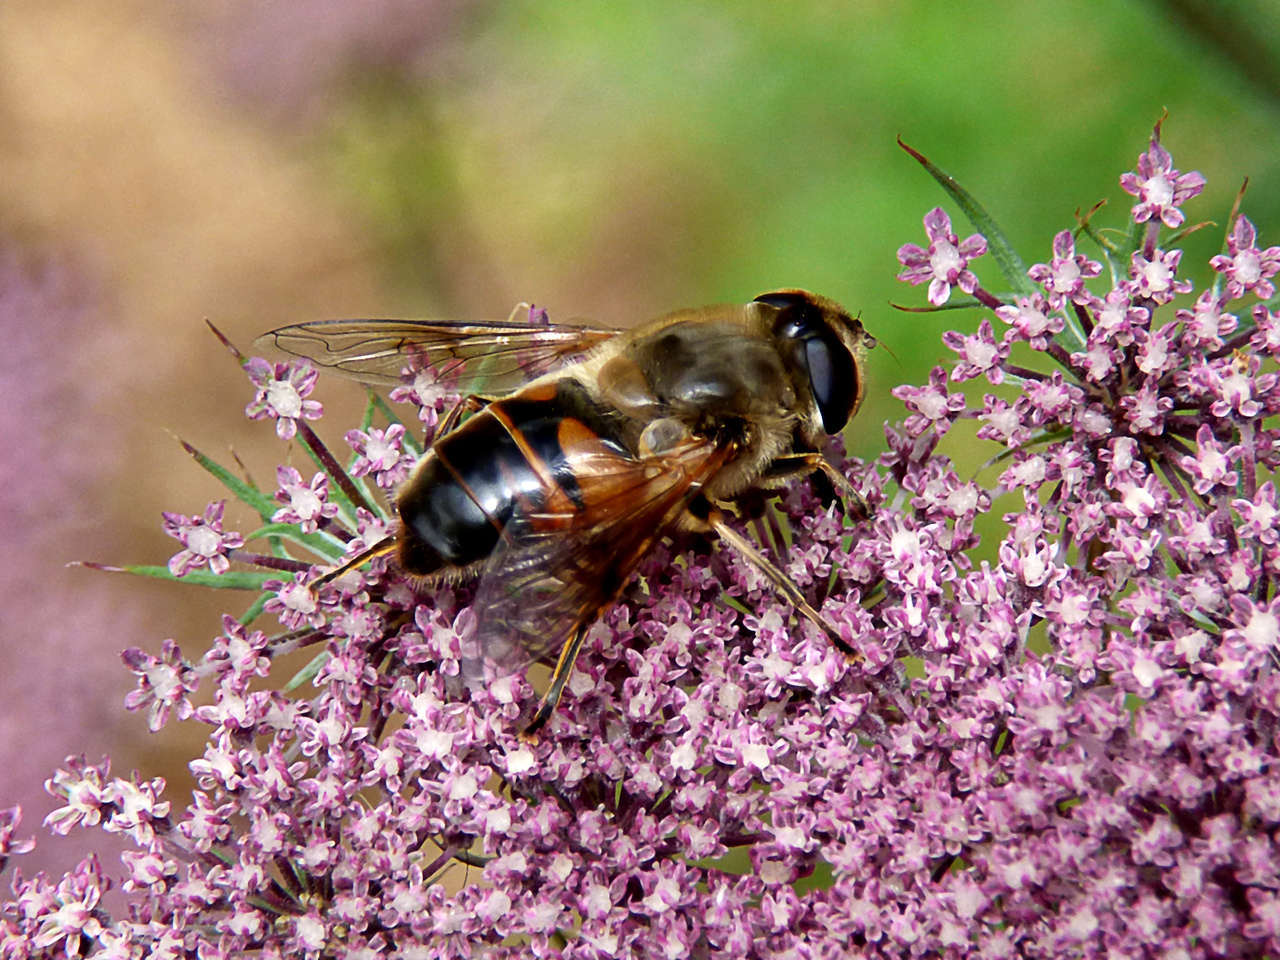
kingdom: Animalia
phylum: Arthropoda
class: Insecta
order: Diptera
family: Syrphidae
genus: Eristalis
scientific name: Eristalis tenax
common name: Drone fly
